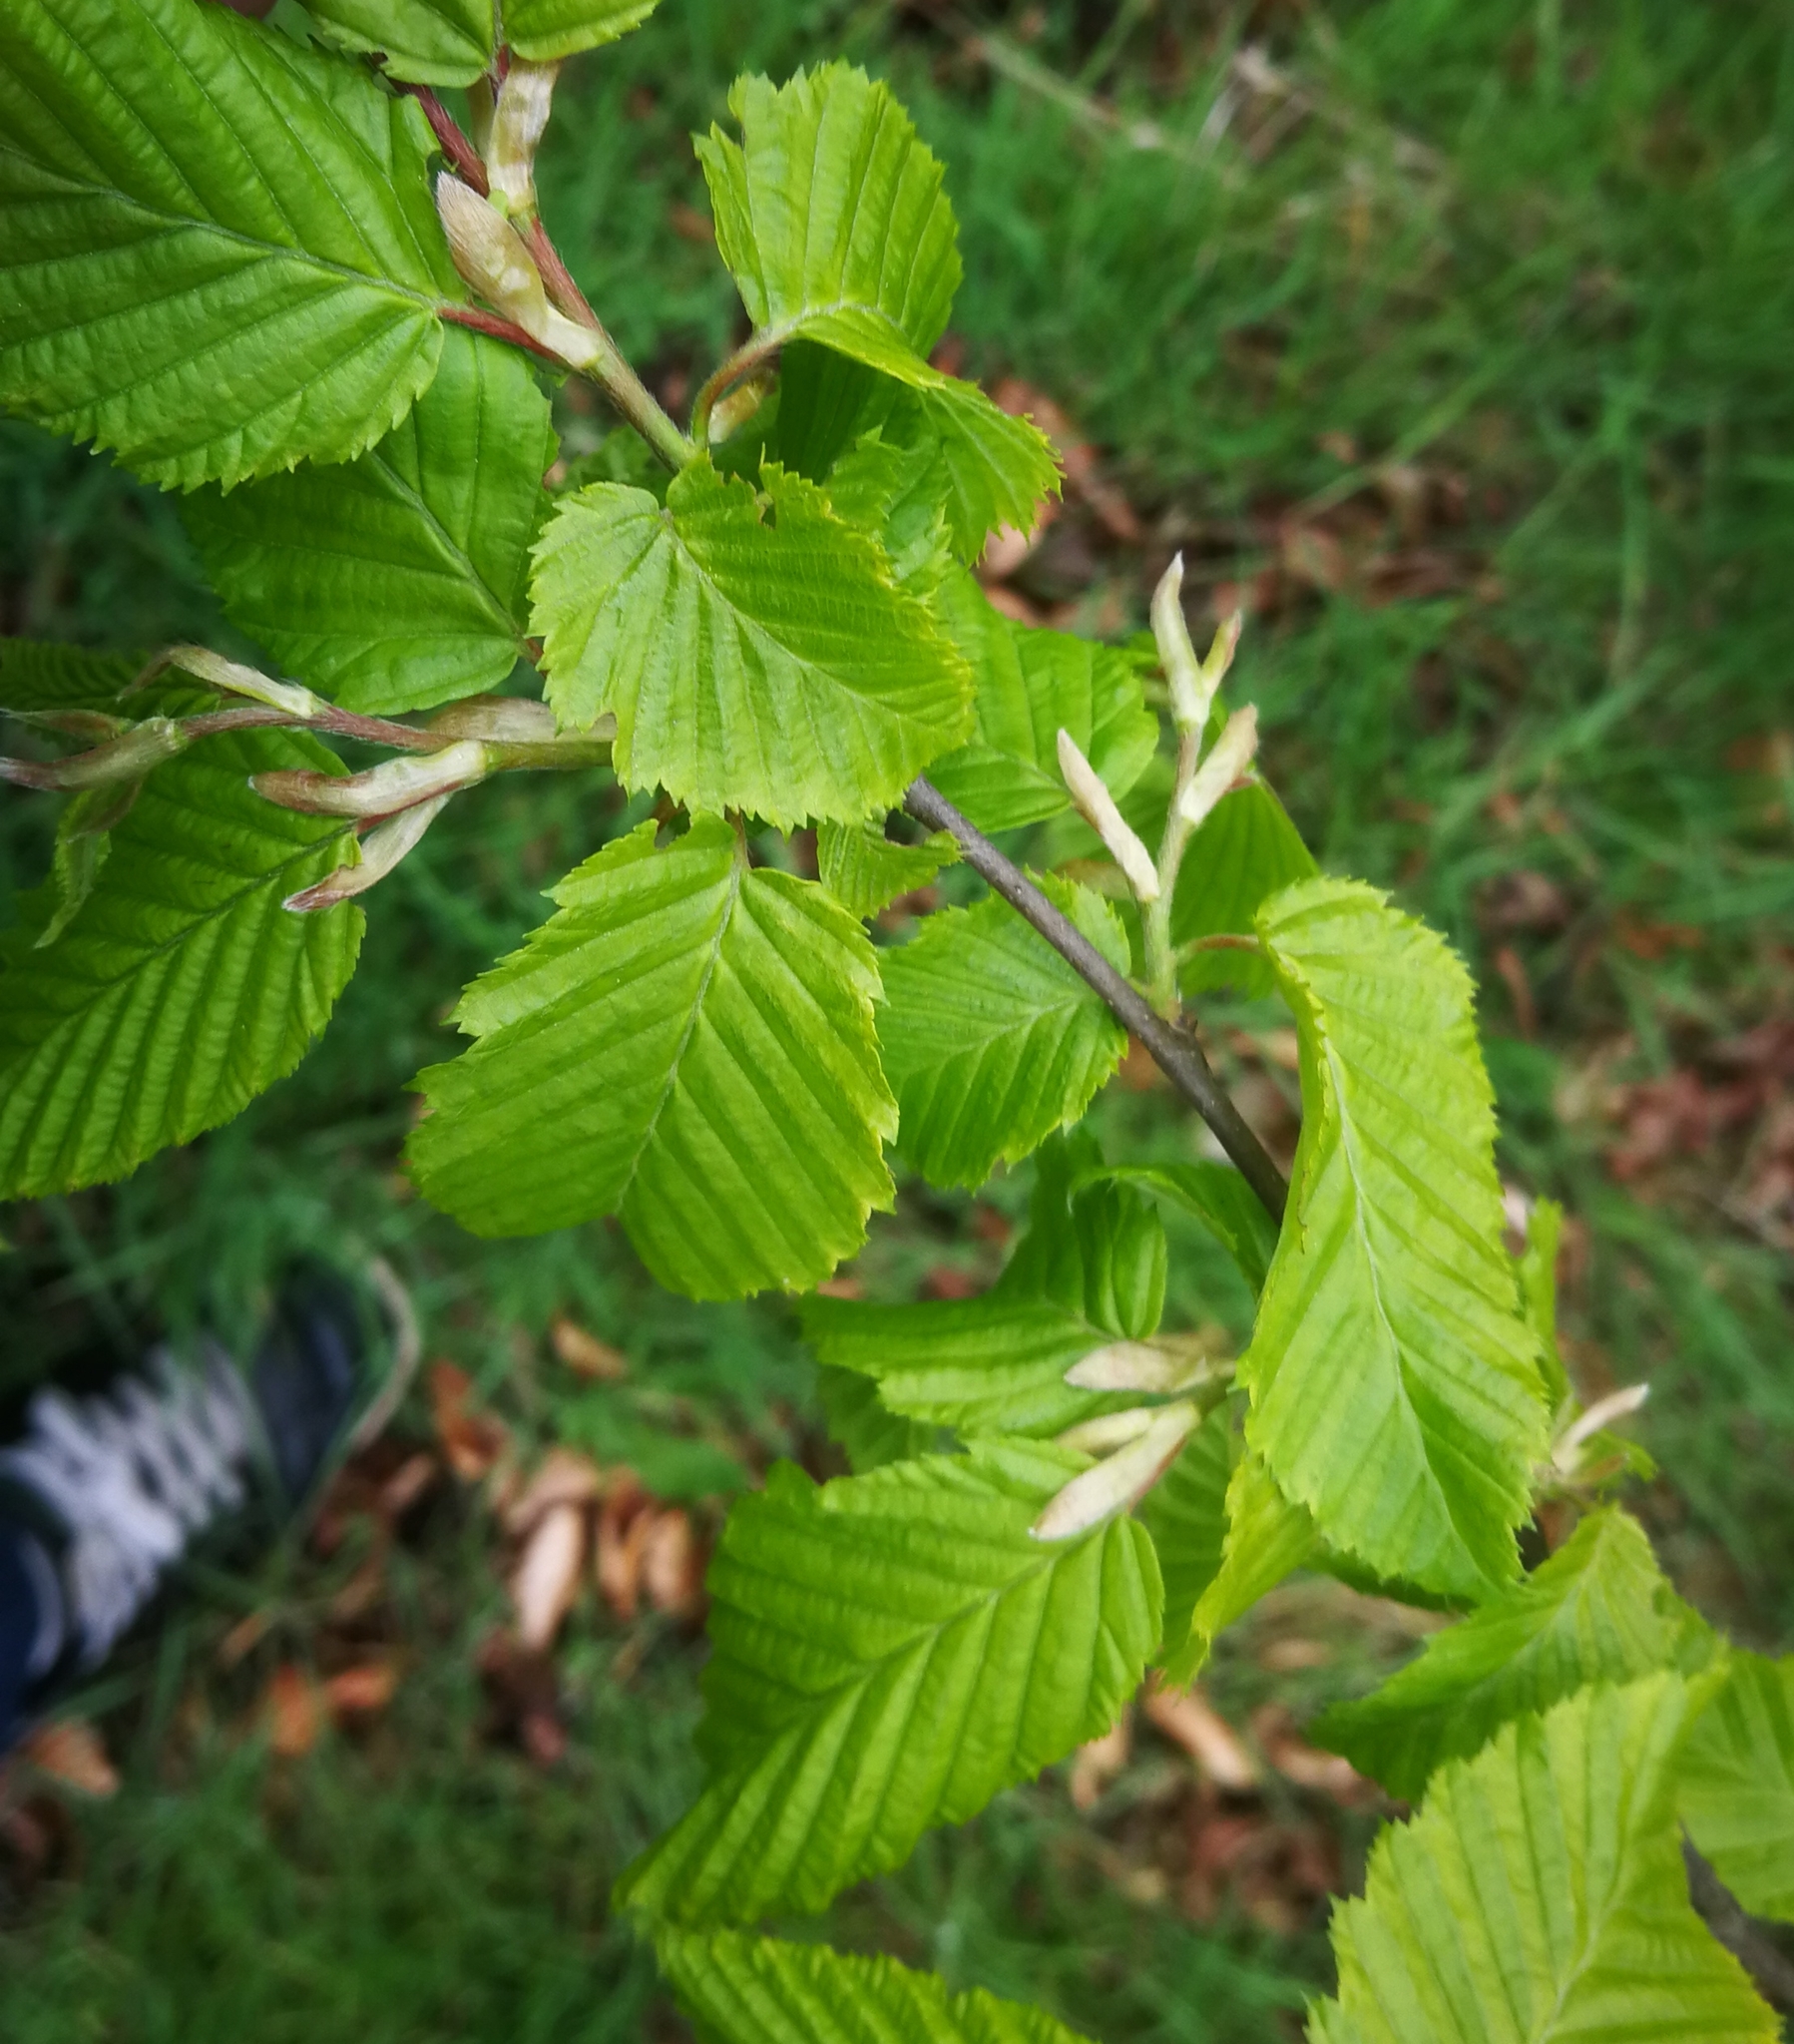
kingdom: Plantae
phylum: Tracheophyta
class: Magnoliopsida
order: Fagales
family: Betulaceae
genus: Carpinus
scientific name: Carpinus betulus
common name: Hornbeam
